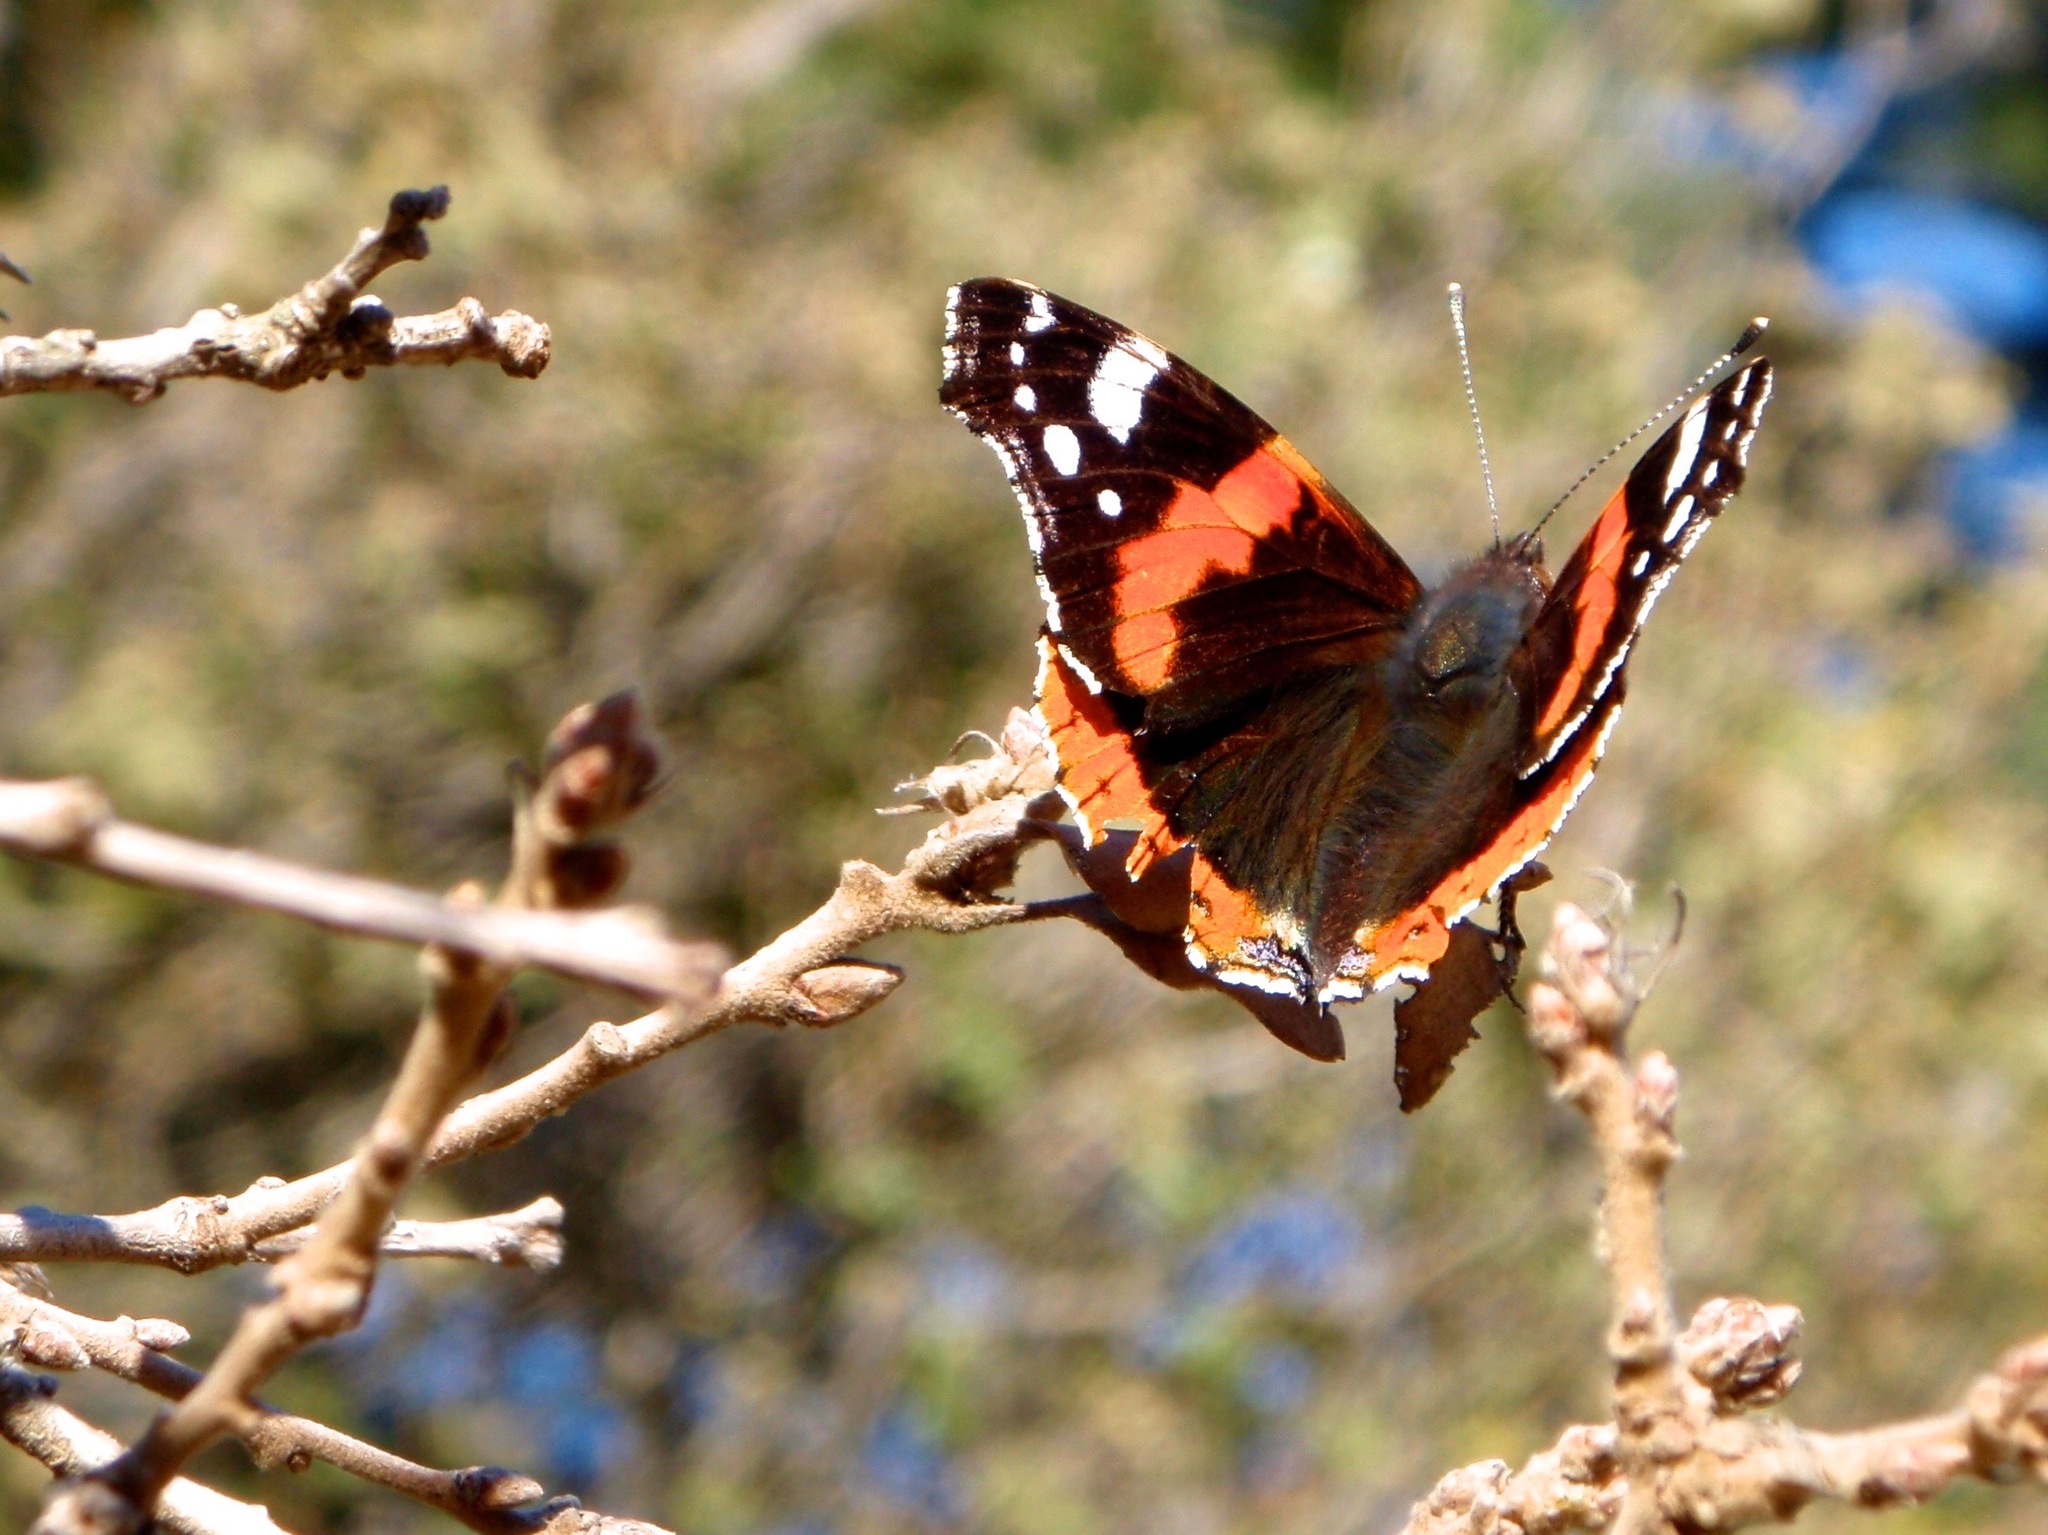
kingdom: Animalia
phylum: Arthropoda
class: Insecta
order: Lepidoptera
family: Nymphalidae
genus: Vanessa
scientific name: Vanessa atalanta
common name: Red admiral
